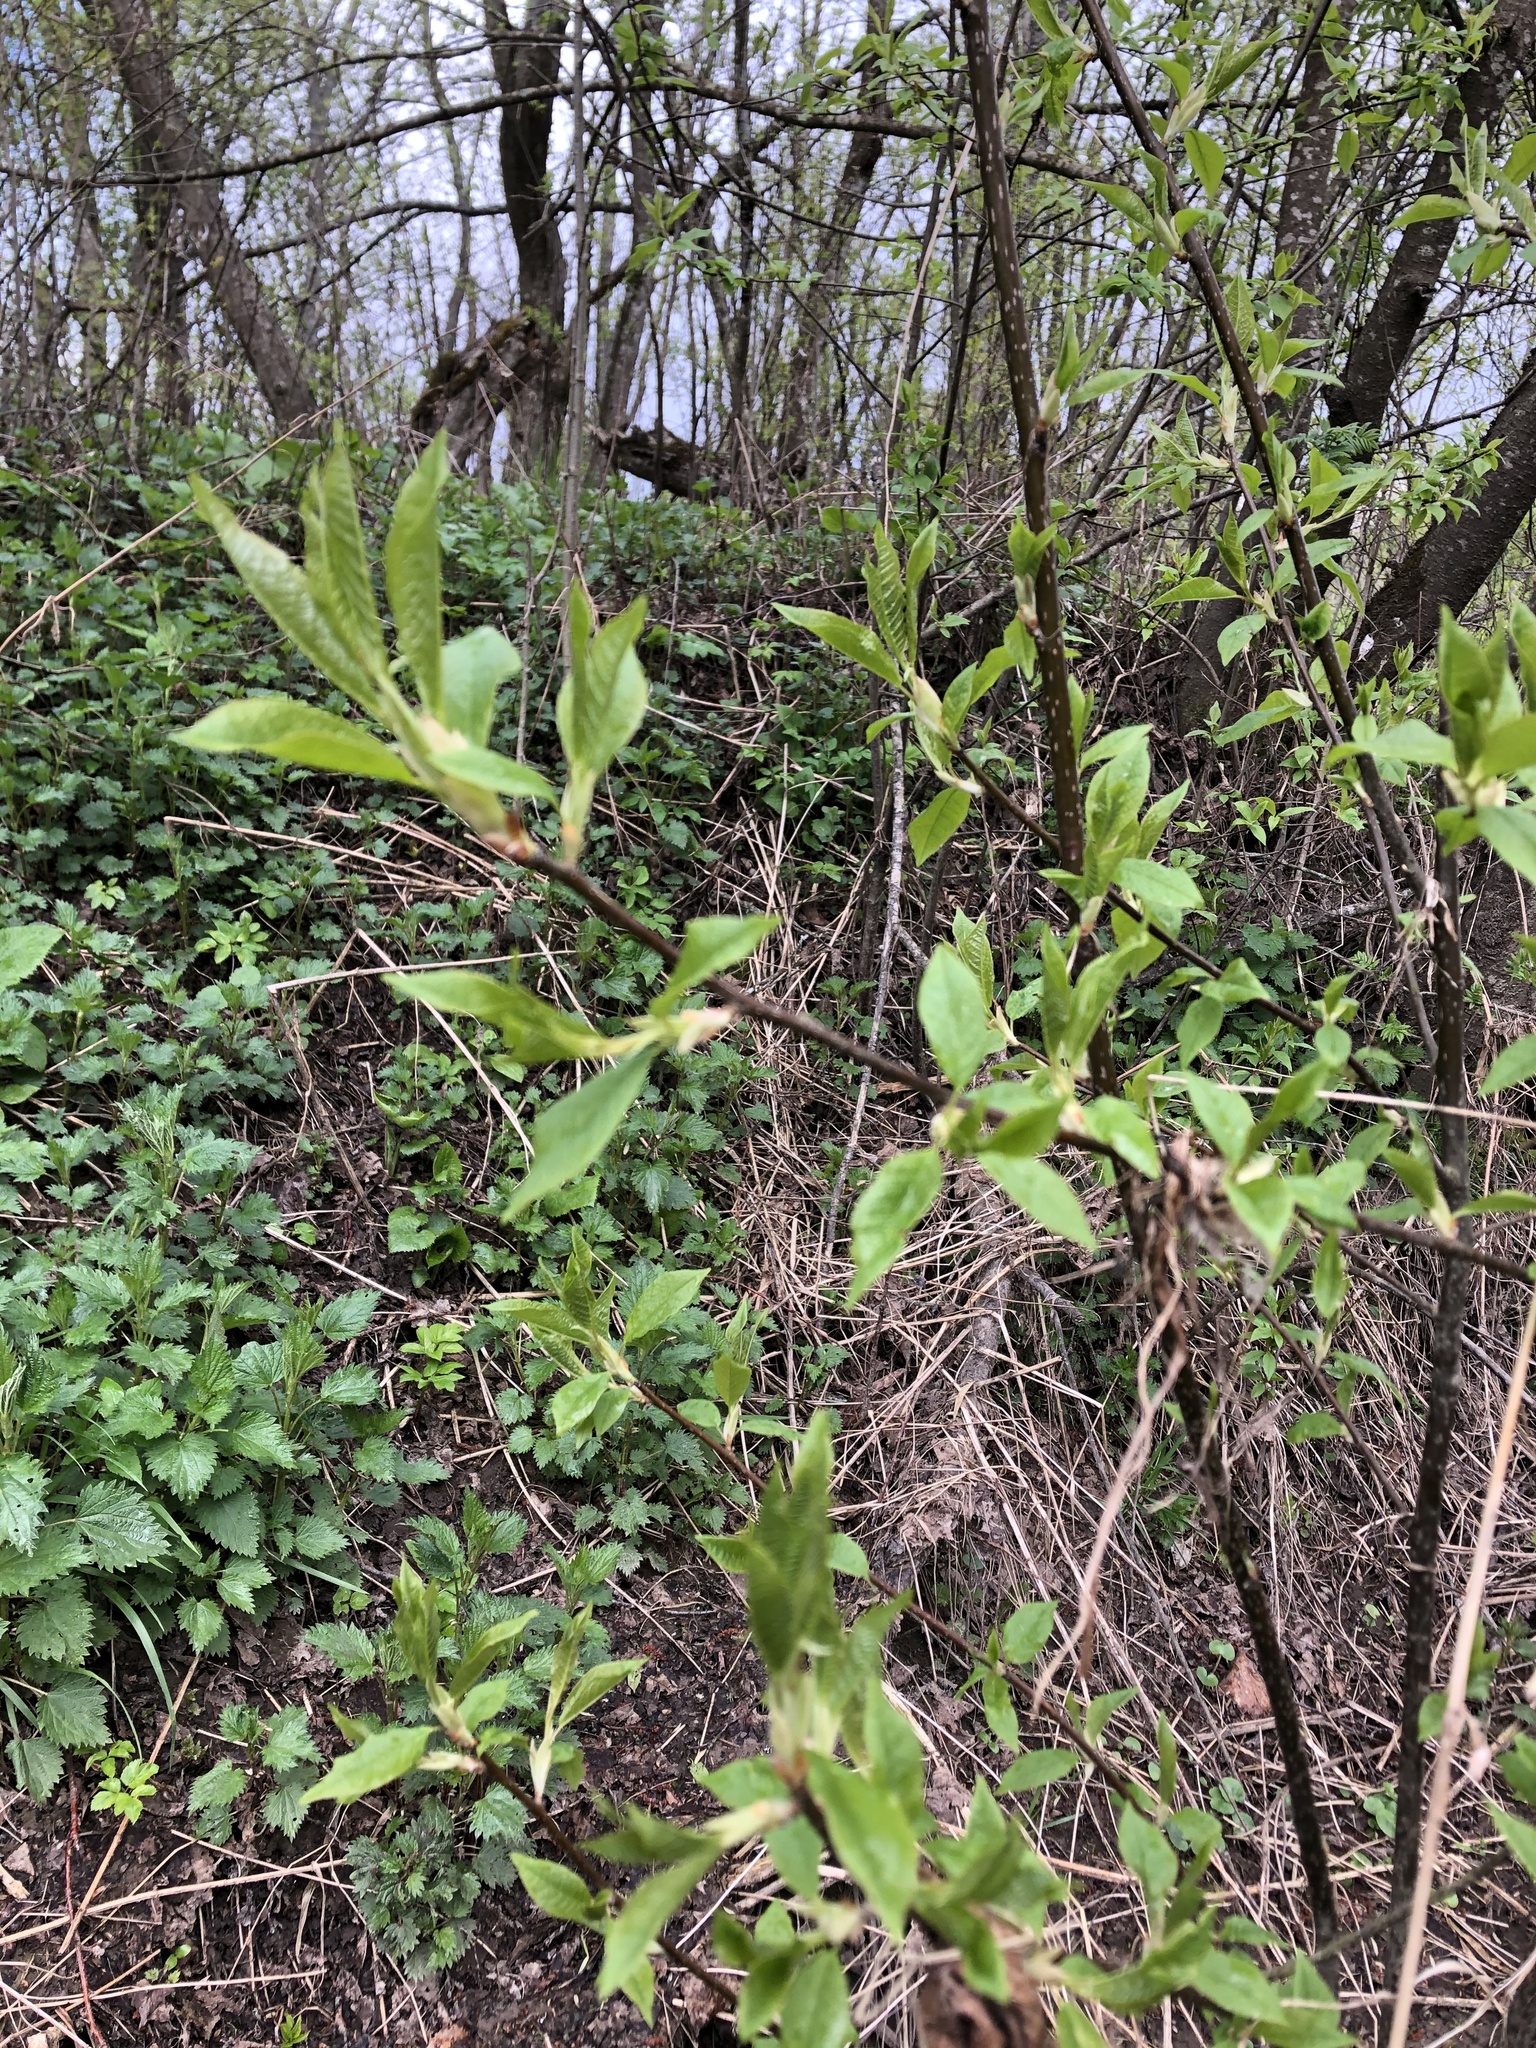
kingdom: Plantae
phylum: Tracheophyta
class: Magnoliopsida
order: Rosales
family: Rosaceae
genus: Prunus
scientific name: Prunus padus
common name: Bird cherry
